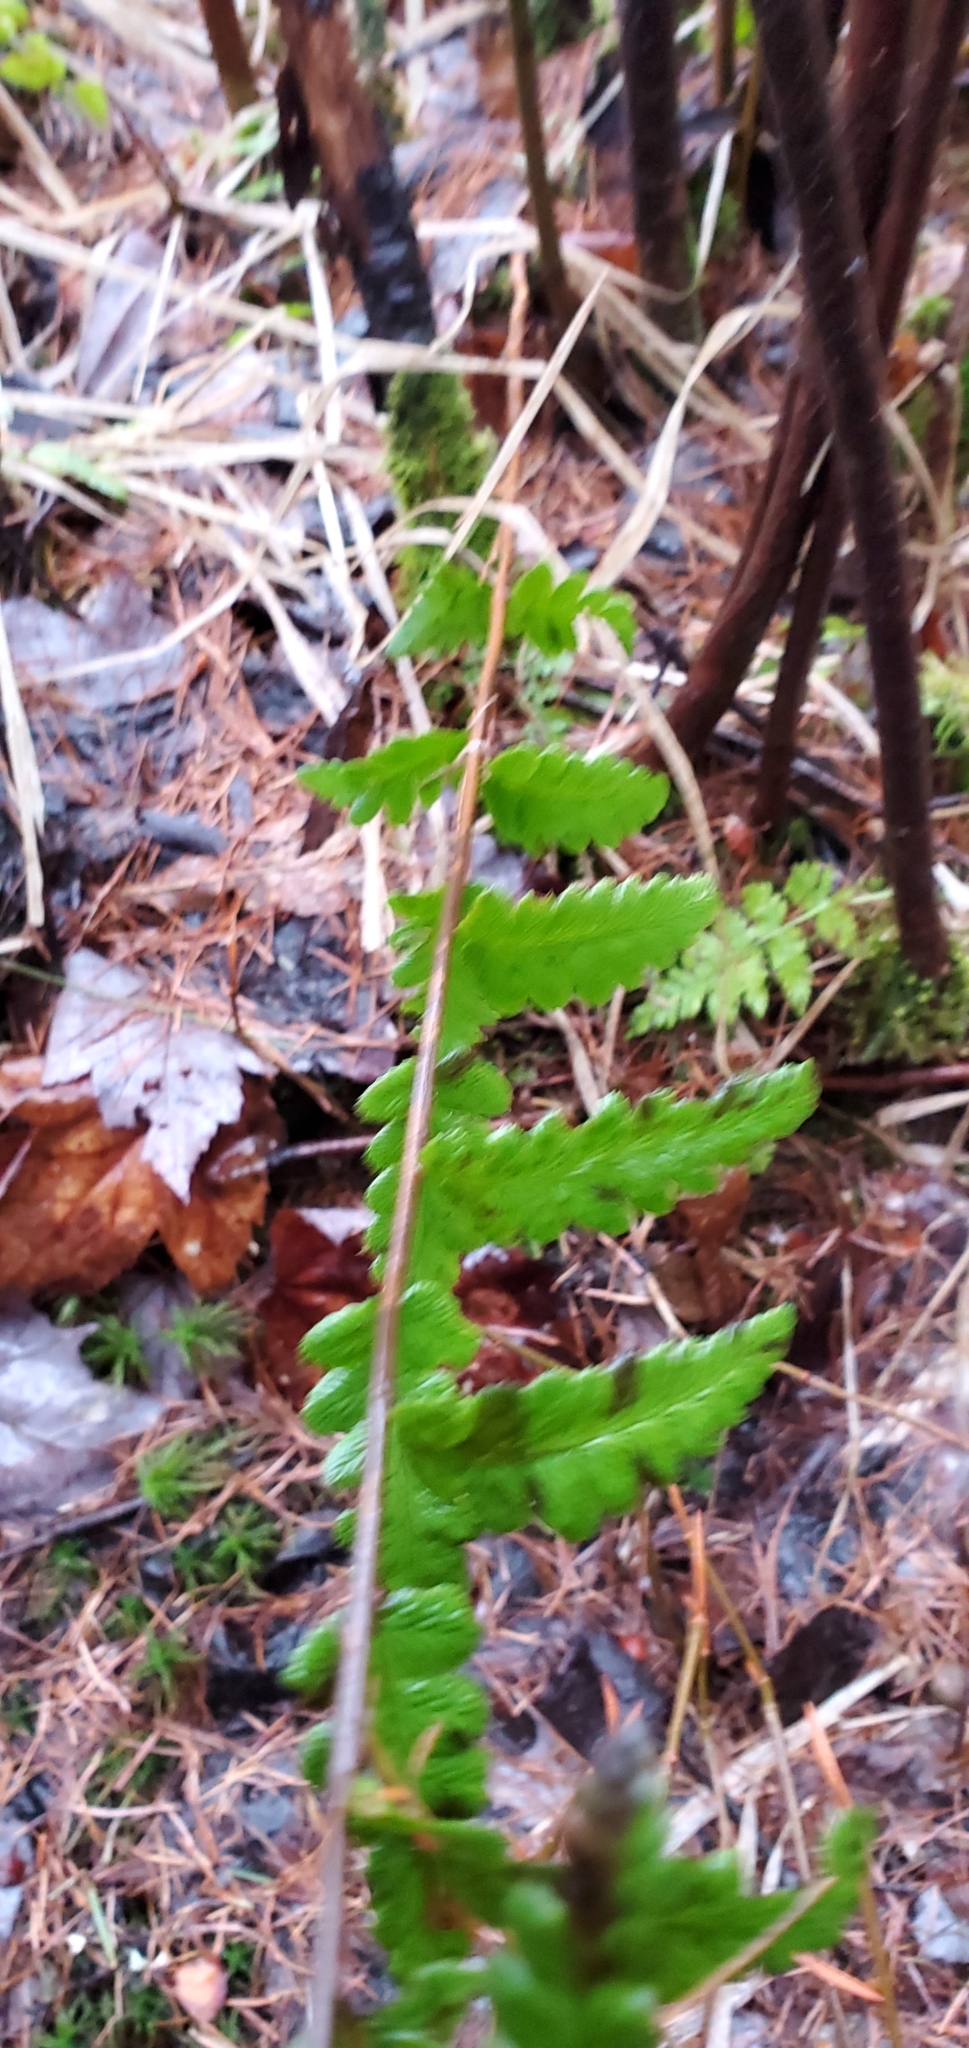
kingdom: Plantae
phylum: Tracheophyta
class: Polypodiopsida
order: Polypodiales
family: Dryopteridaceae
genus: Dryopteris
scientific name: Dryopteris cristata
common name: Crested wood fern
